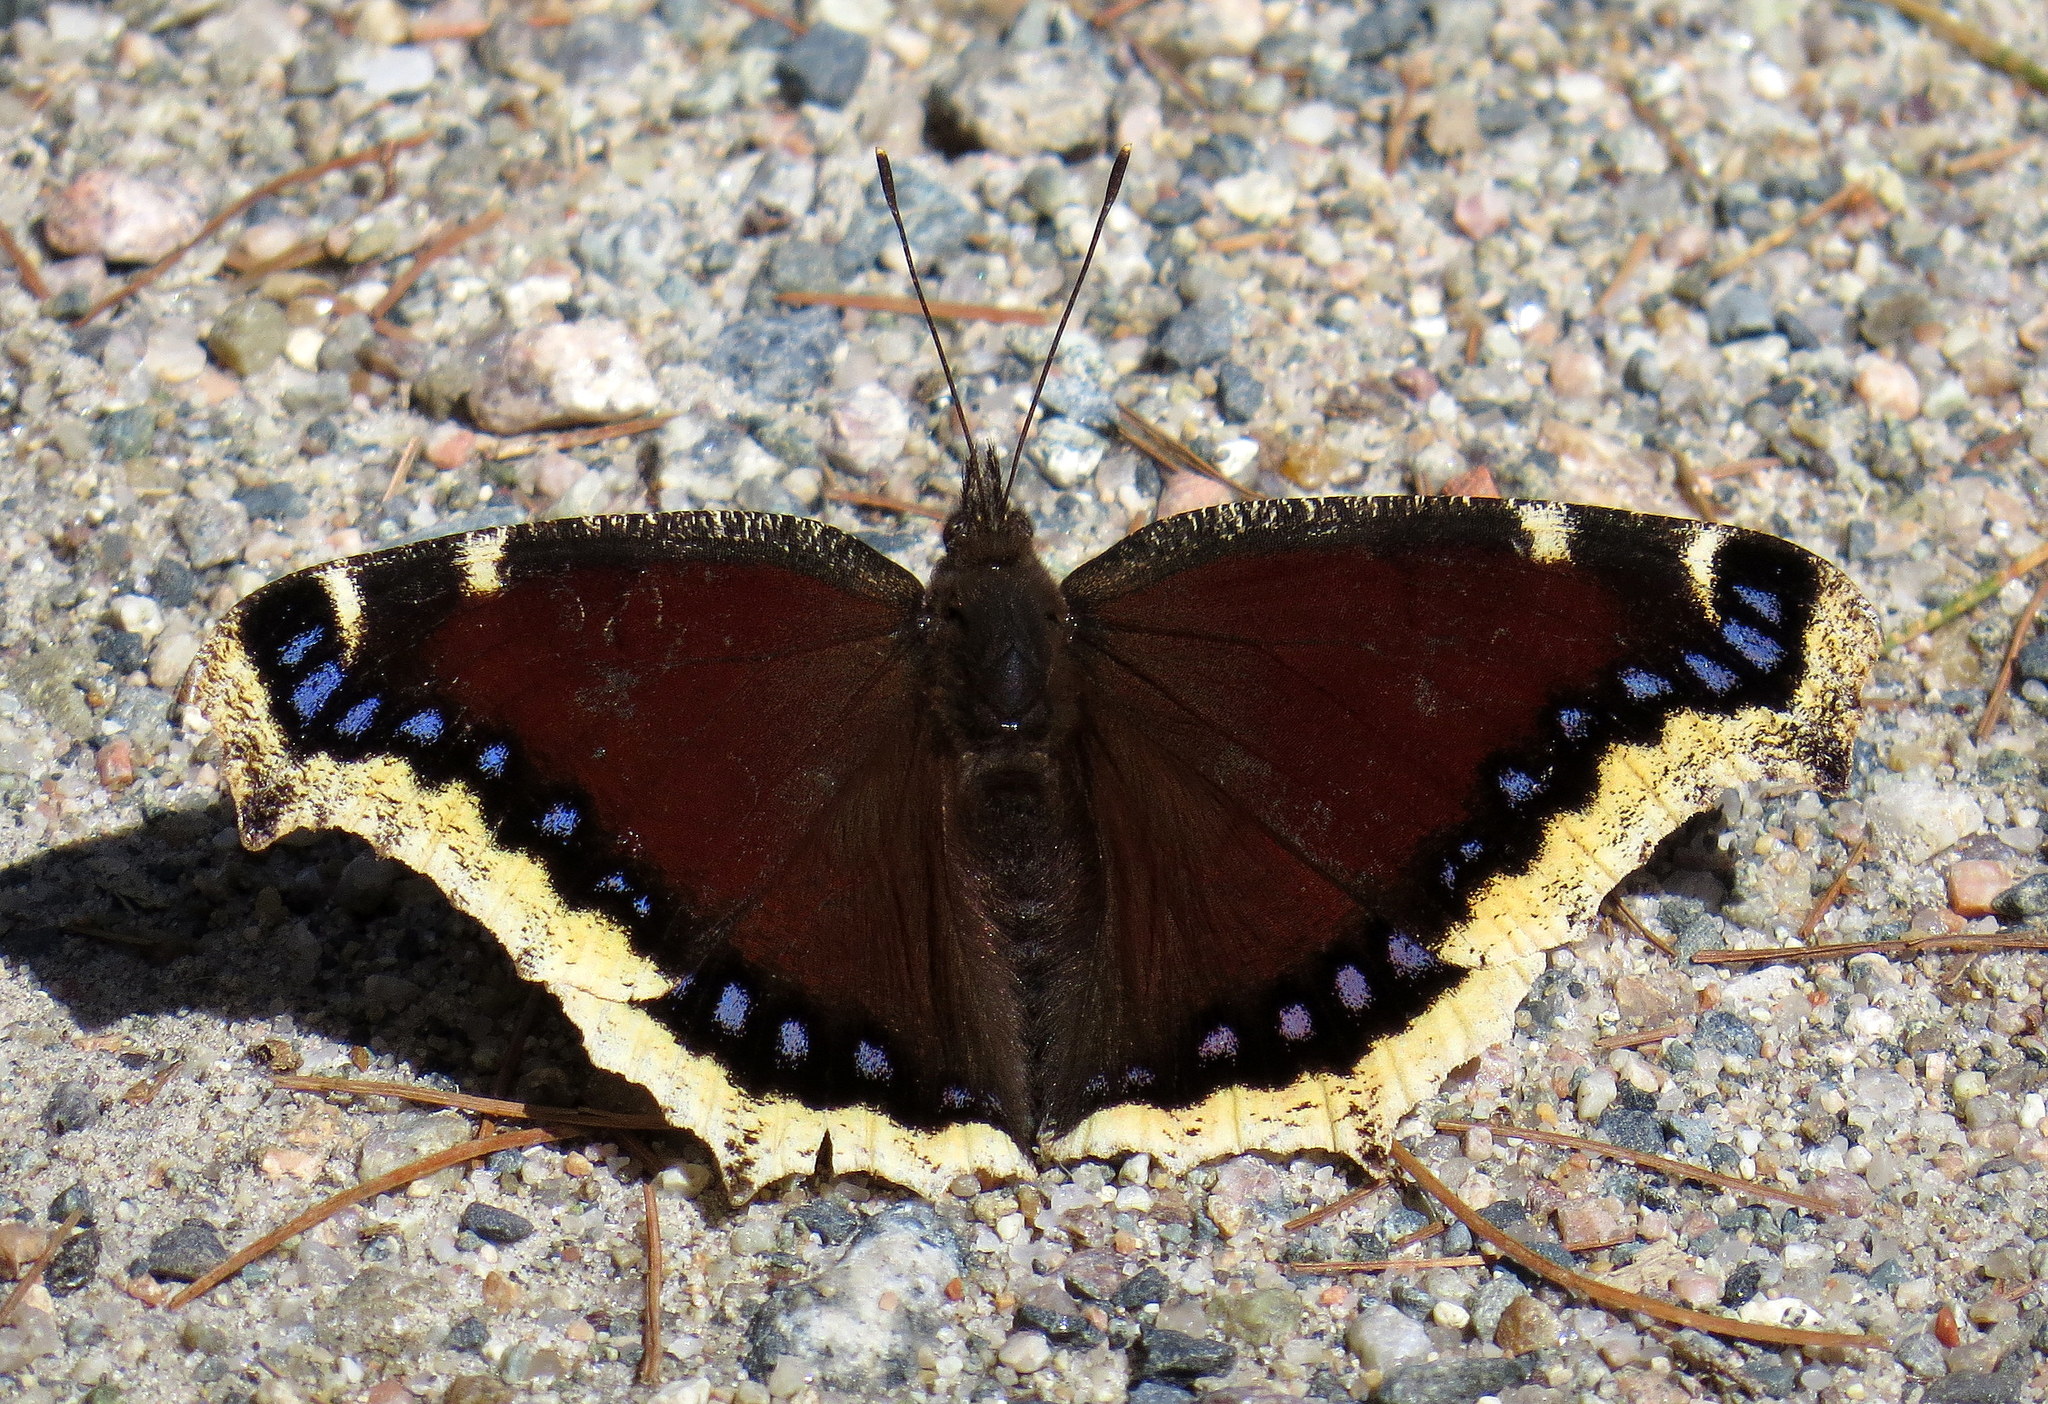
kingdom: Animalia
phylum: Arthropoda
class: Insecta
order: Lepidoptera
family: Nymphalidae
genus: Nymphalis
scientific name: Nymphalis antiopa
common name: Camberwell beauty
